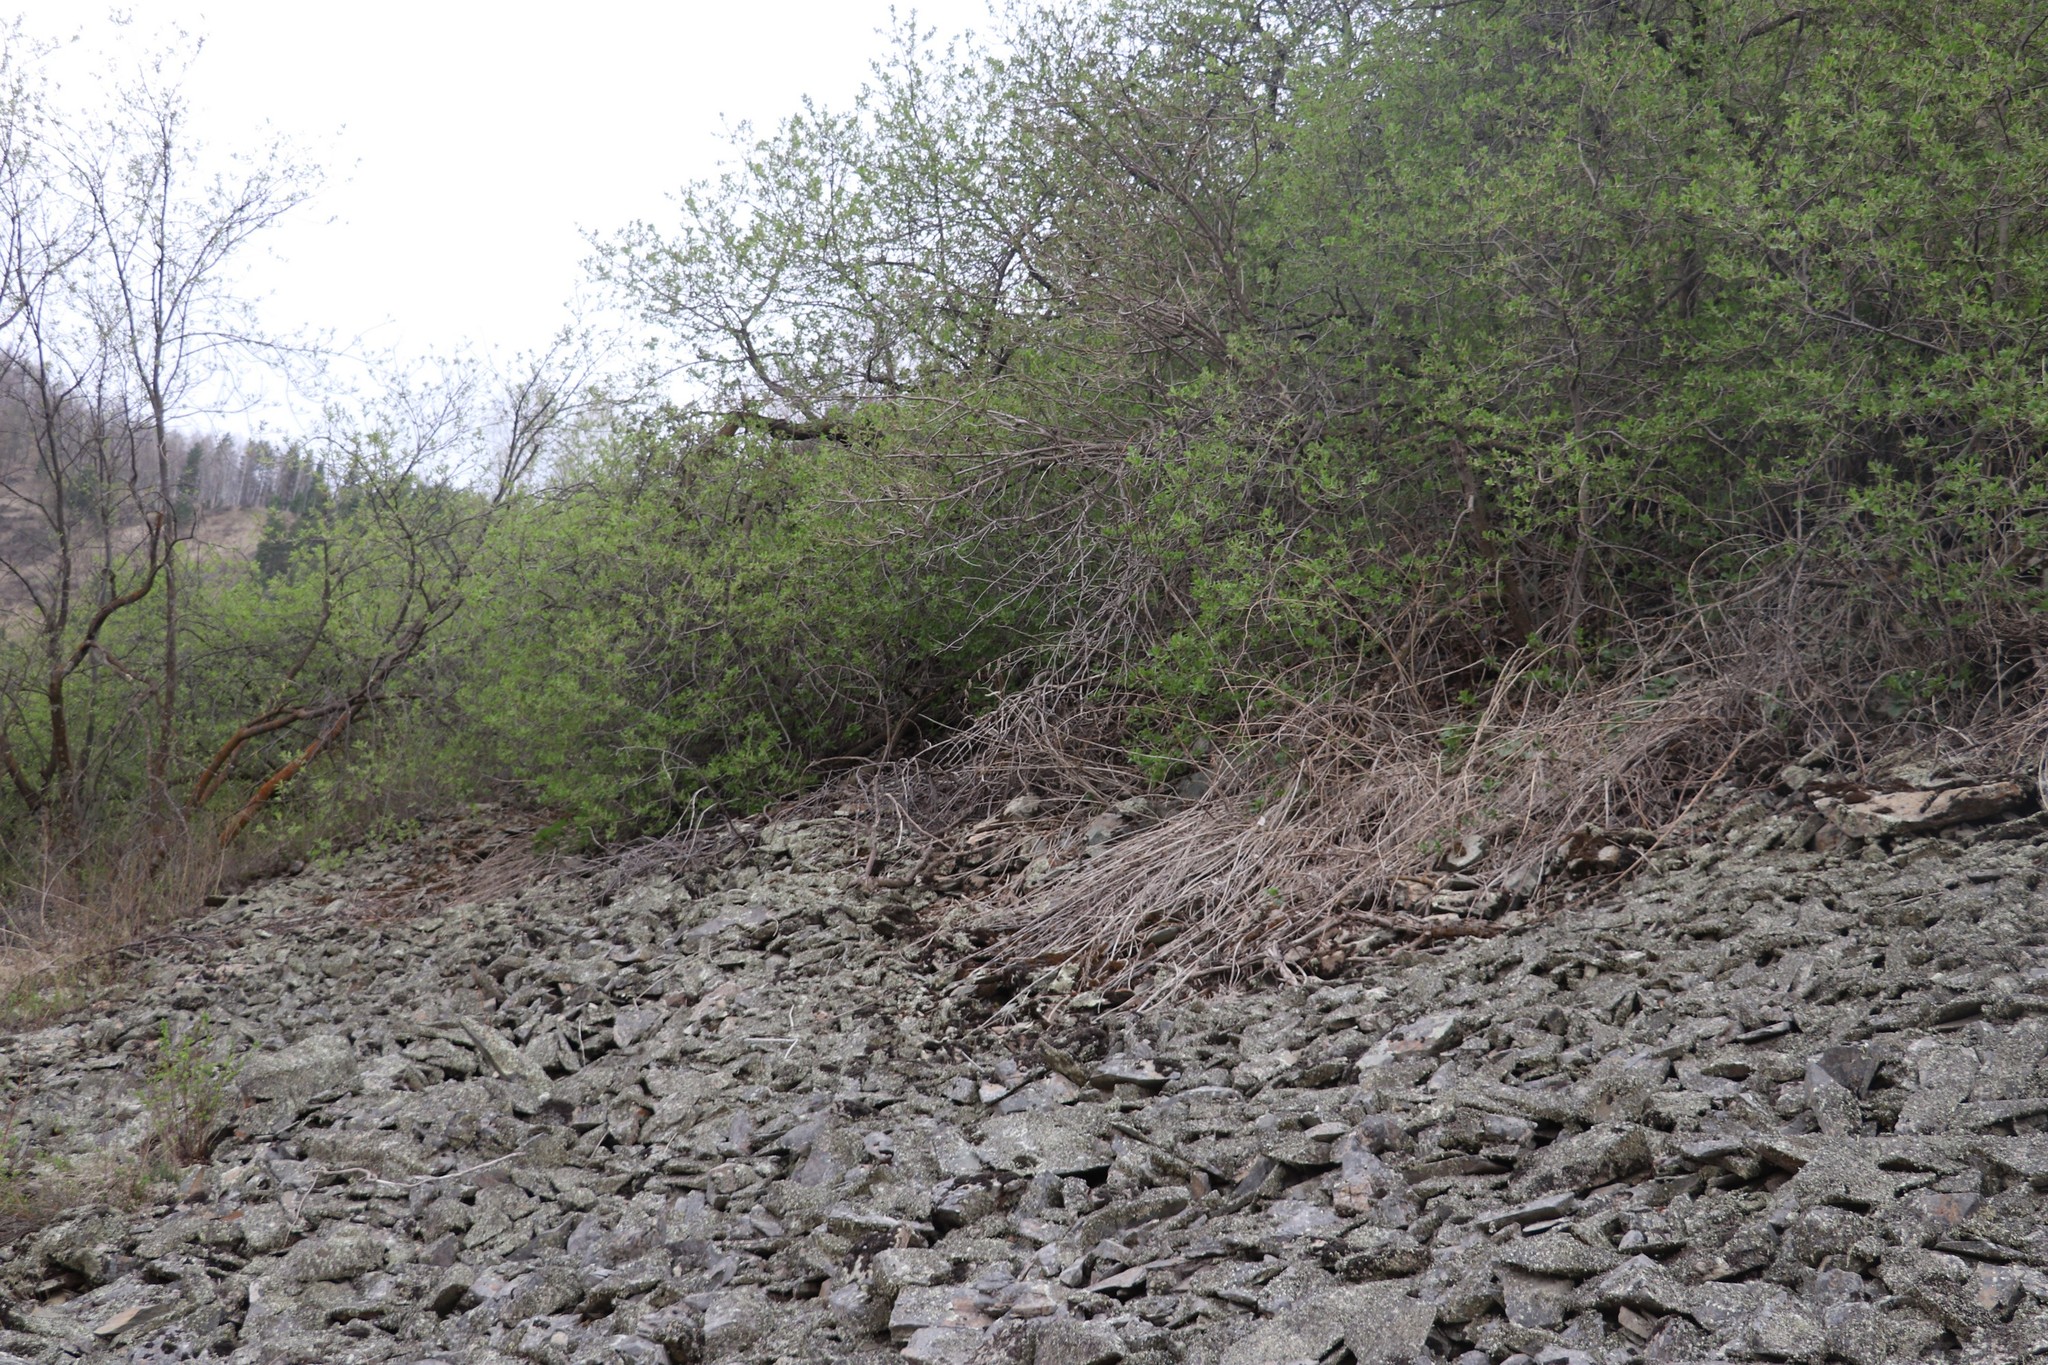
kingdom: Plantae
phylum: Tracheophyta
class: Magnoliopsida
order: Ranunculales
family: Papaveraceae
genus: Corydalis
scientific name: Corydalis nobilis
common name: Siberian corydalis
